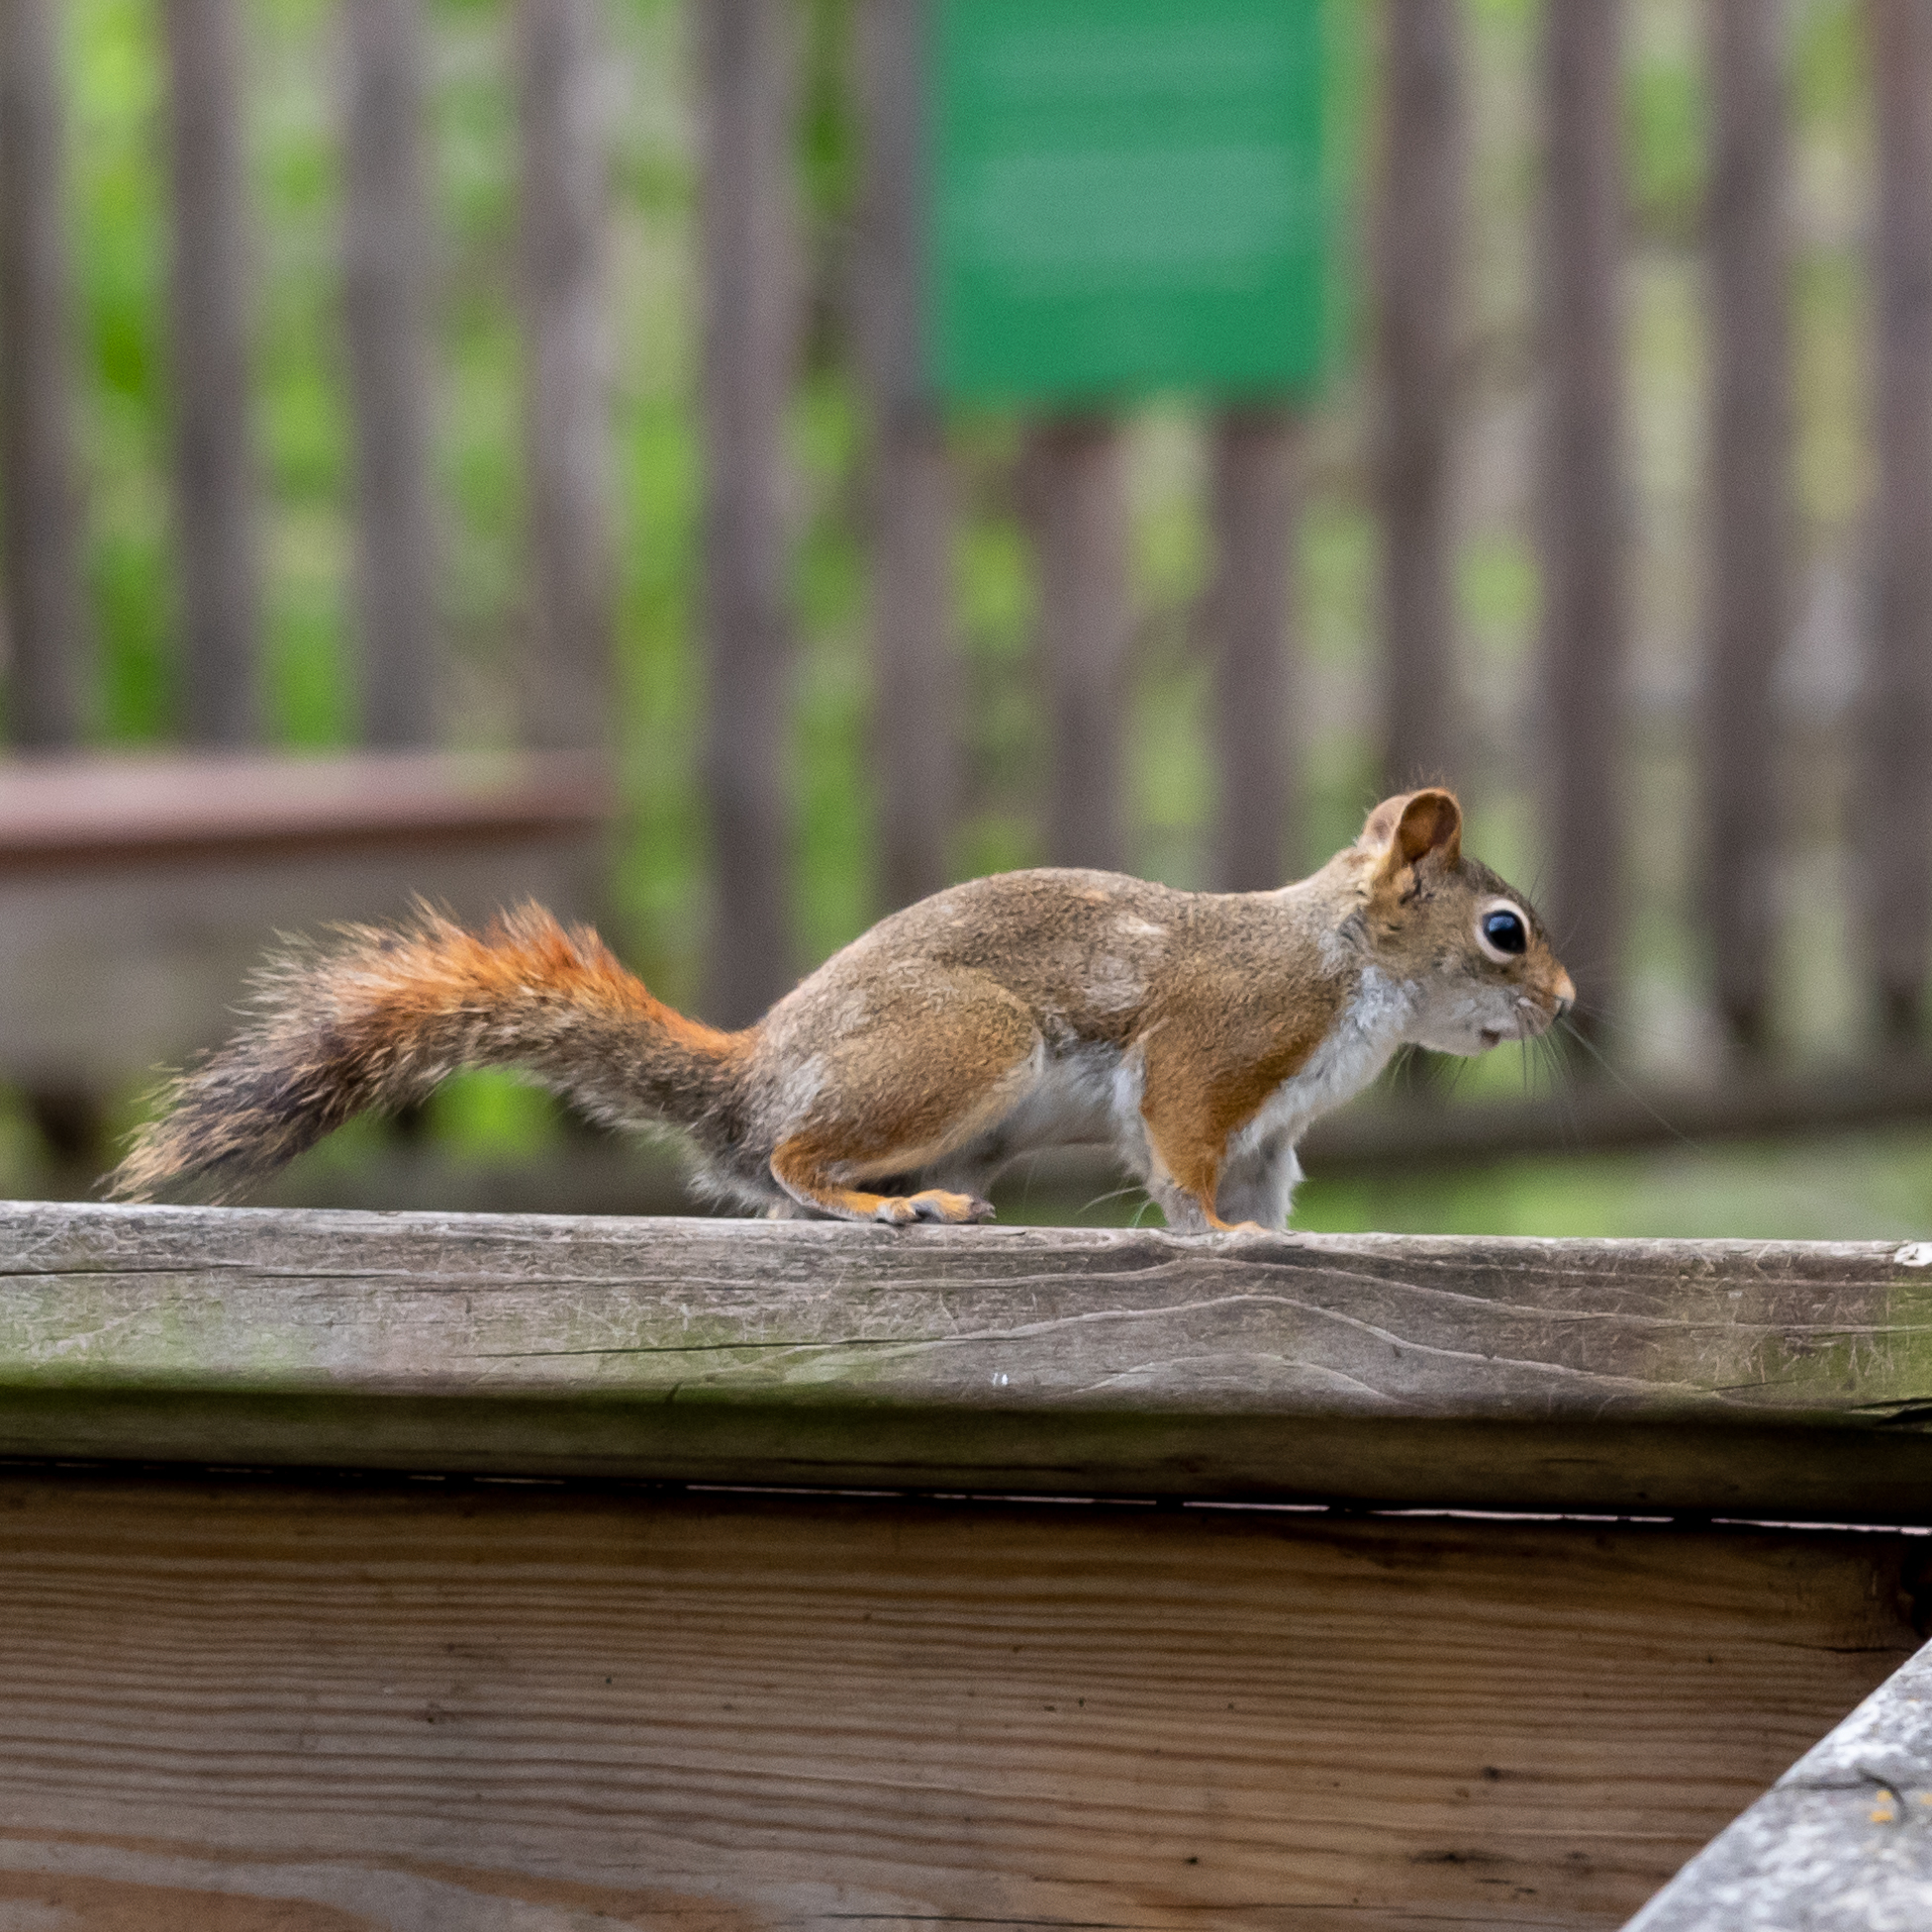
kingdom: Animalia
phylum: Chordata
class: Mammalia
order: Rodentia
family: Sciuridae
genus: Tamiasciurus
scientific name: Tamiasciurus hudsonicus
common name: Red squirrel
